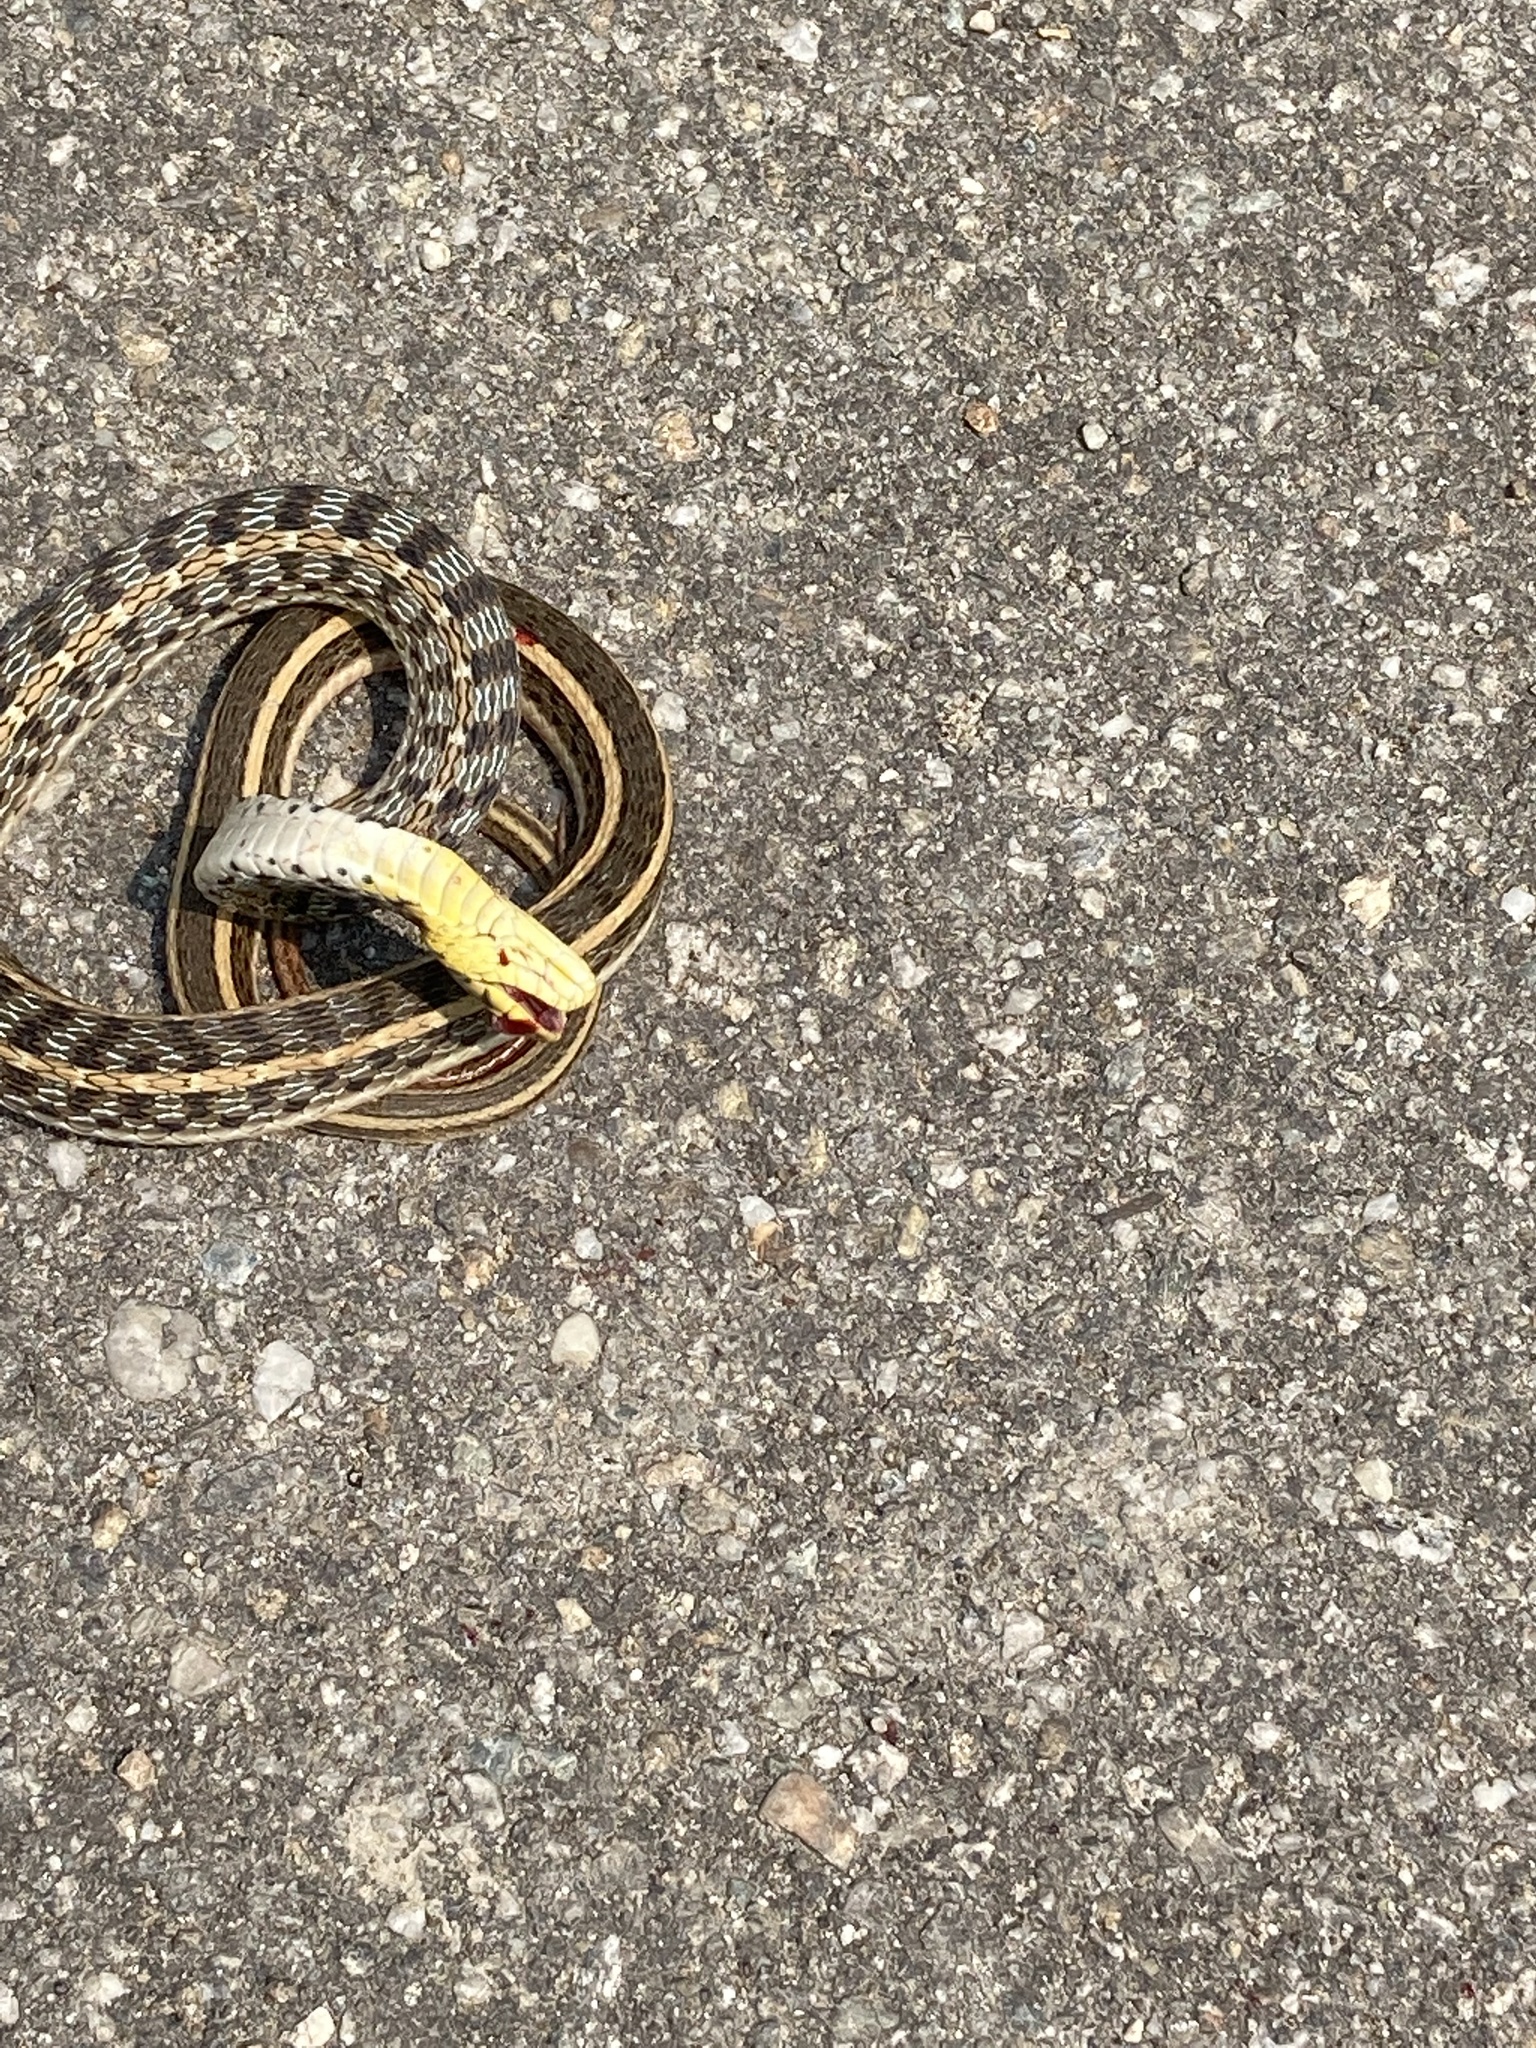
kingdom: Animalia
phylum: Chordata
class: Squamata
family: Colubridae
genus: Amphiesma
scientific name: Amphiesma stolatum
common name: Buff striped keelback
